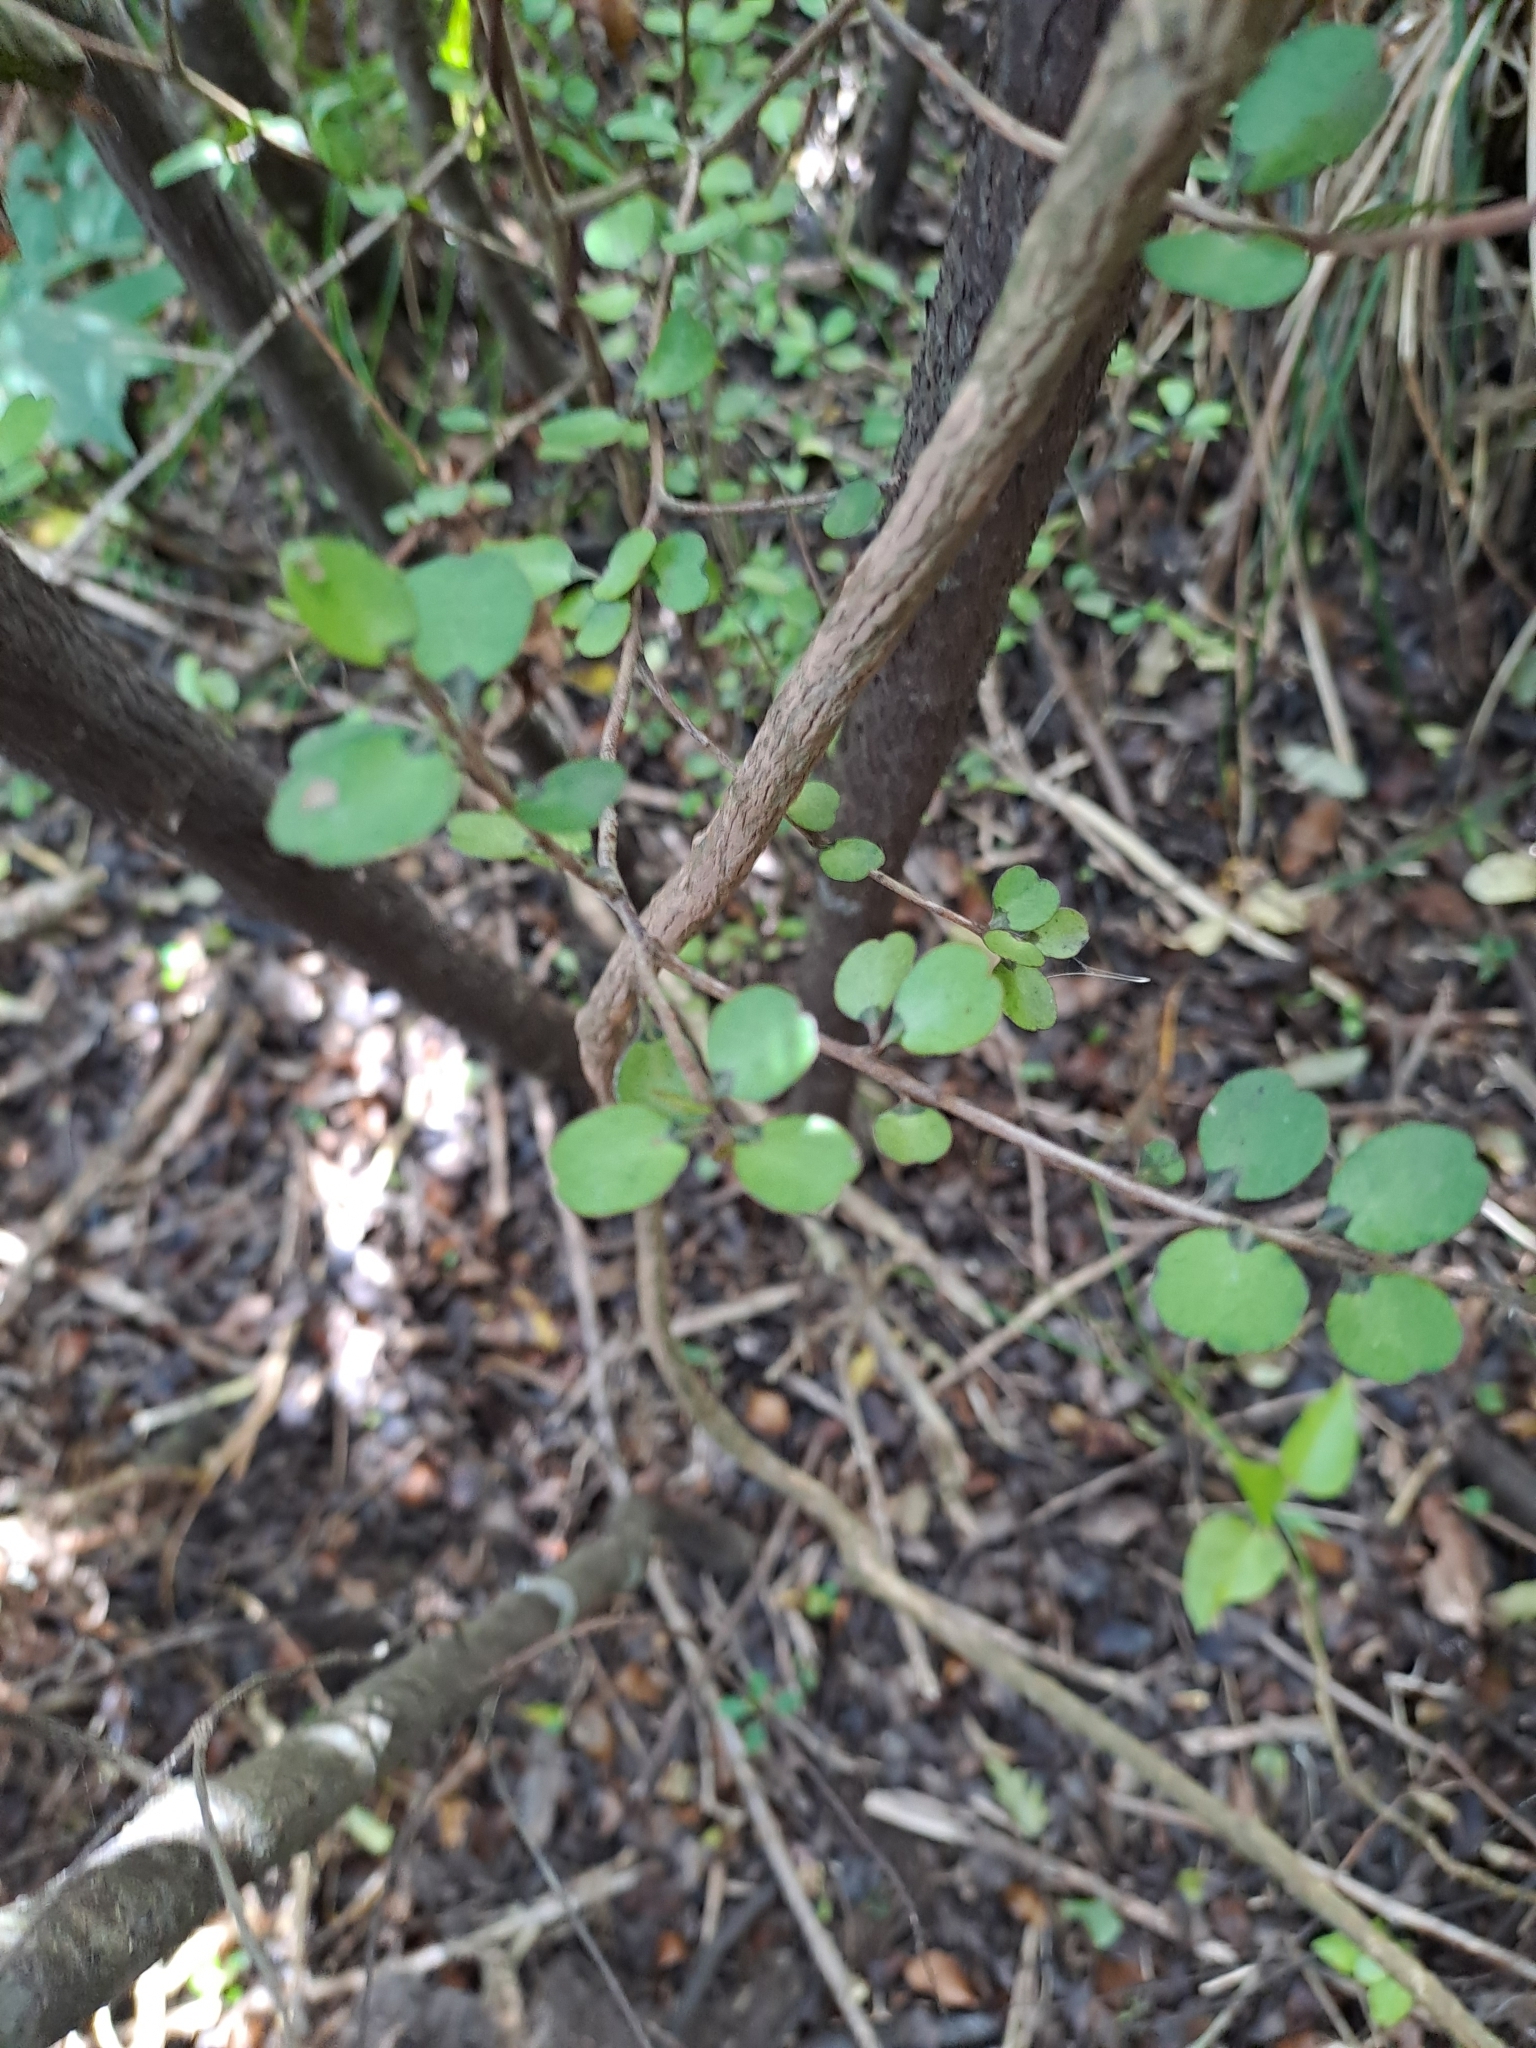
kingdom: Plantae
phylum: Tracheophyta
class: Magnoliopsida
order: Ericales
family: Primulaceae
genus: Myrsine
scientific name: Myrsine divaricata
